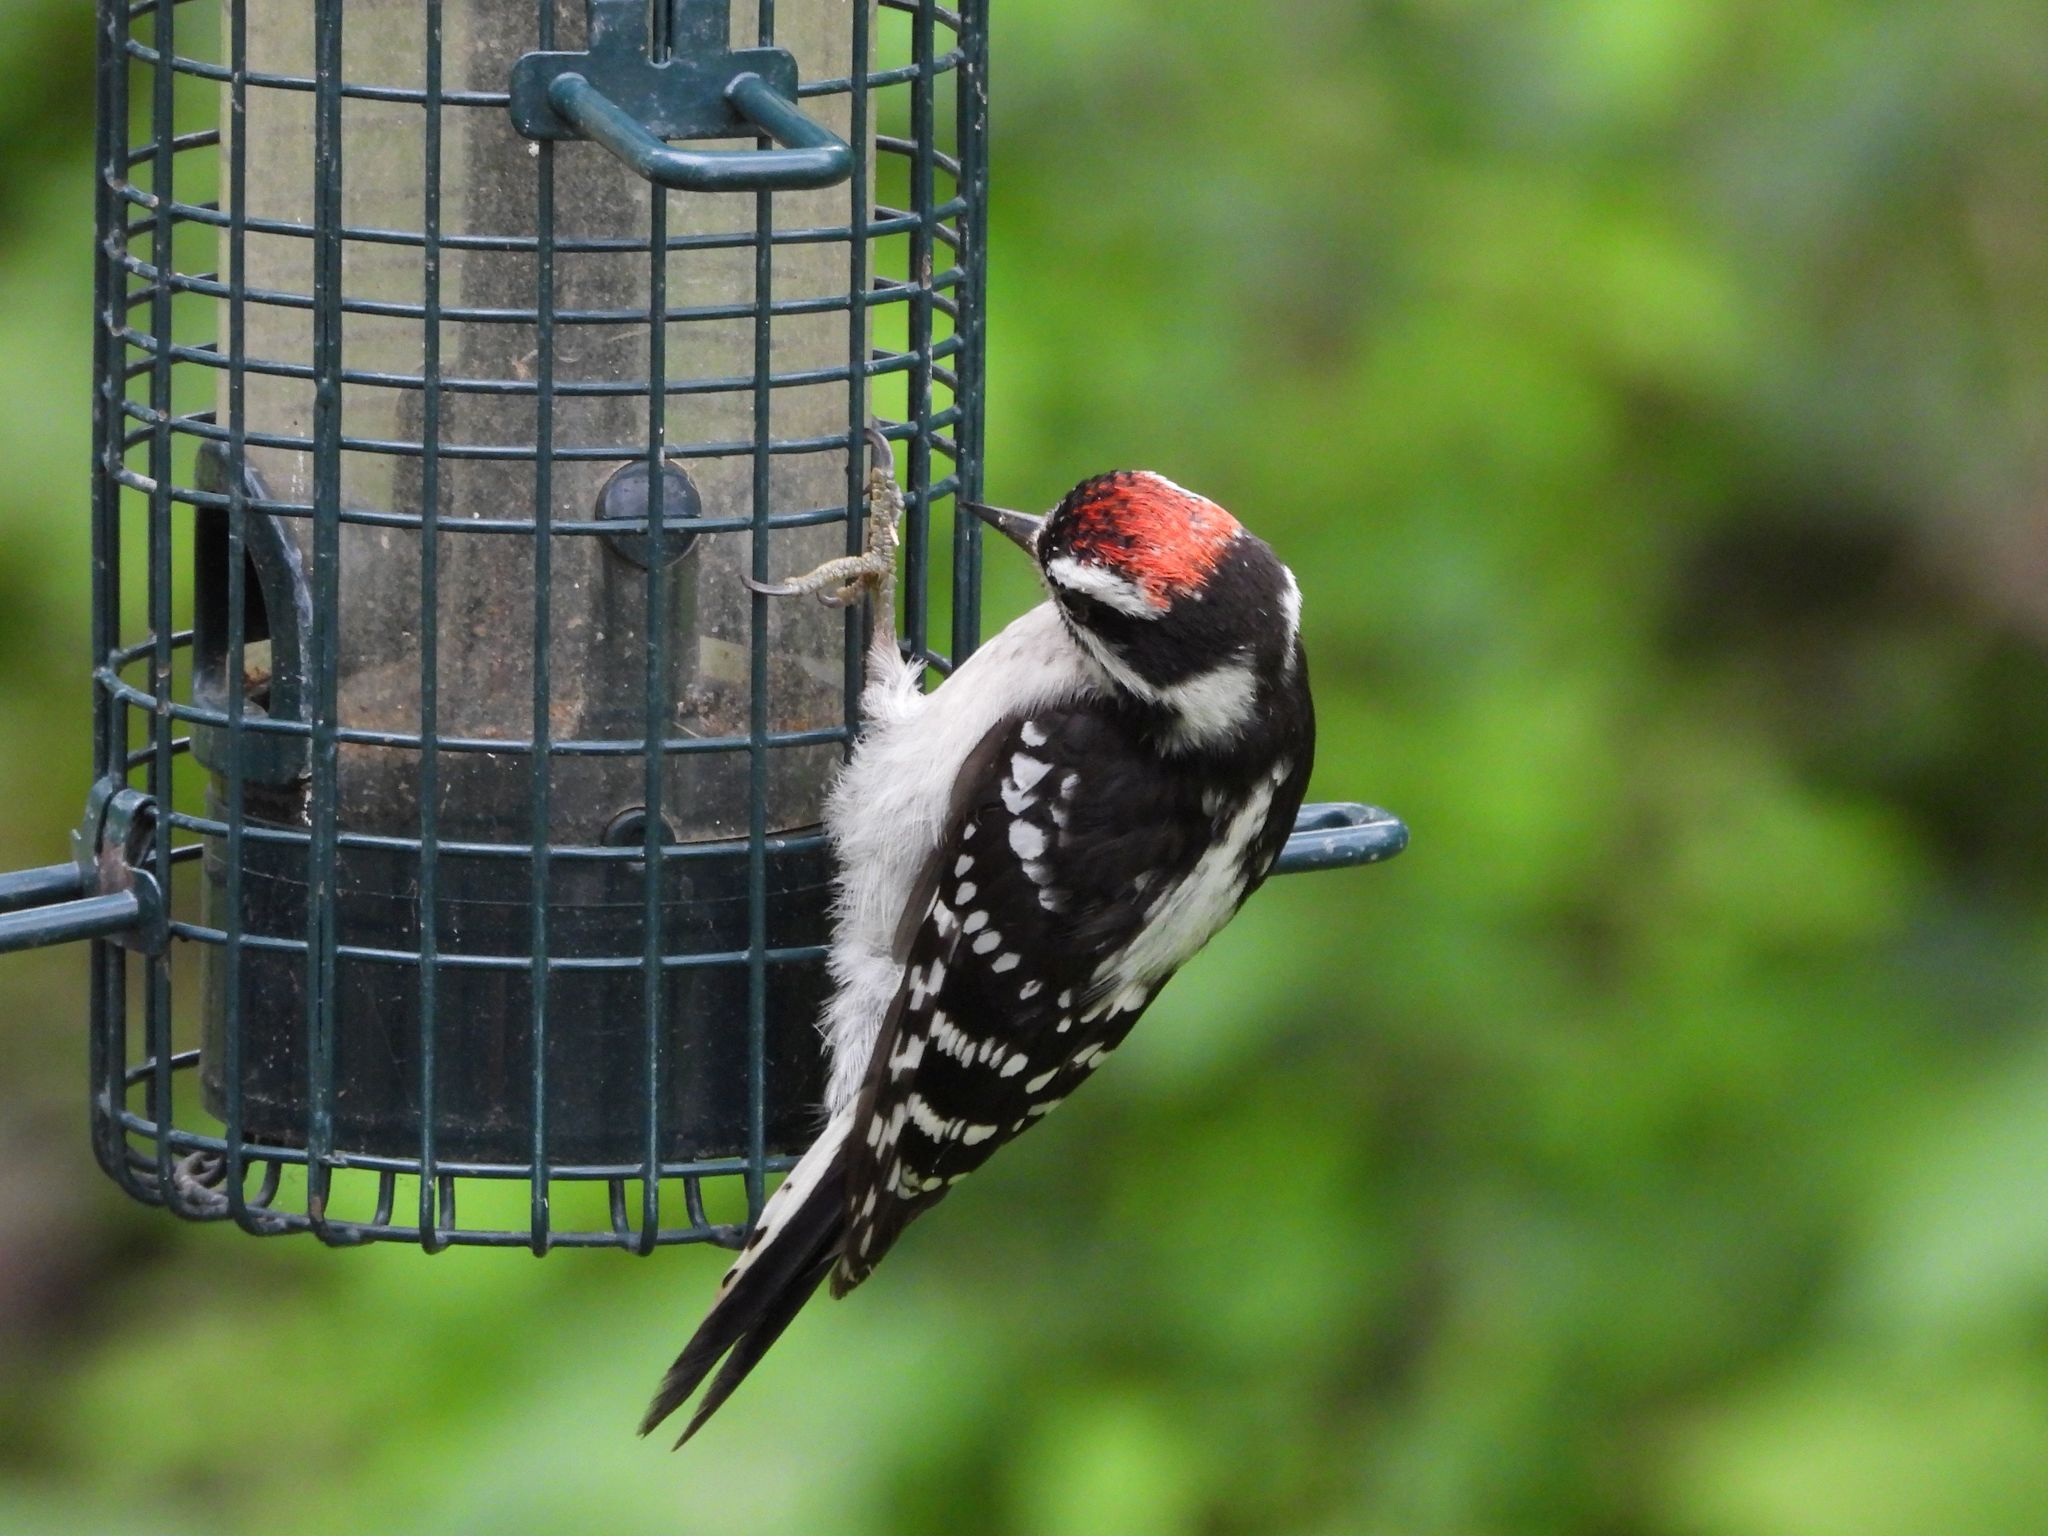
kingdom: Animalia
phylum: Chordata
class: Aves
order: Piciformes
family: Picidae
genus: Dryobates
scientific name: Dryobates pubescens
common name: Downy woodpecker
